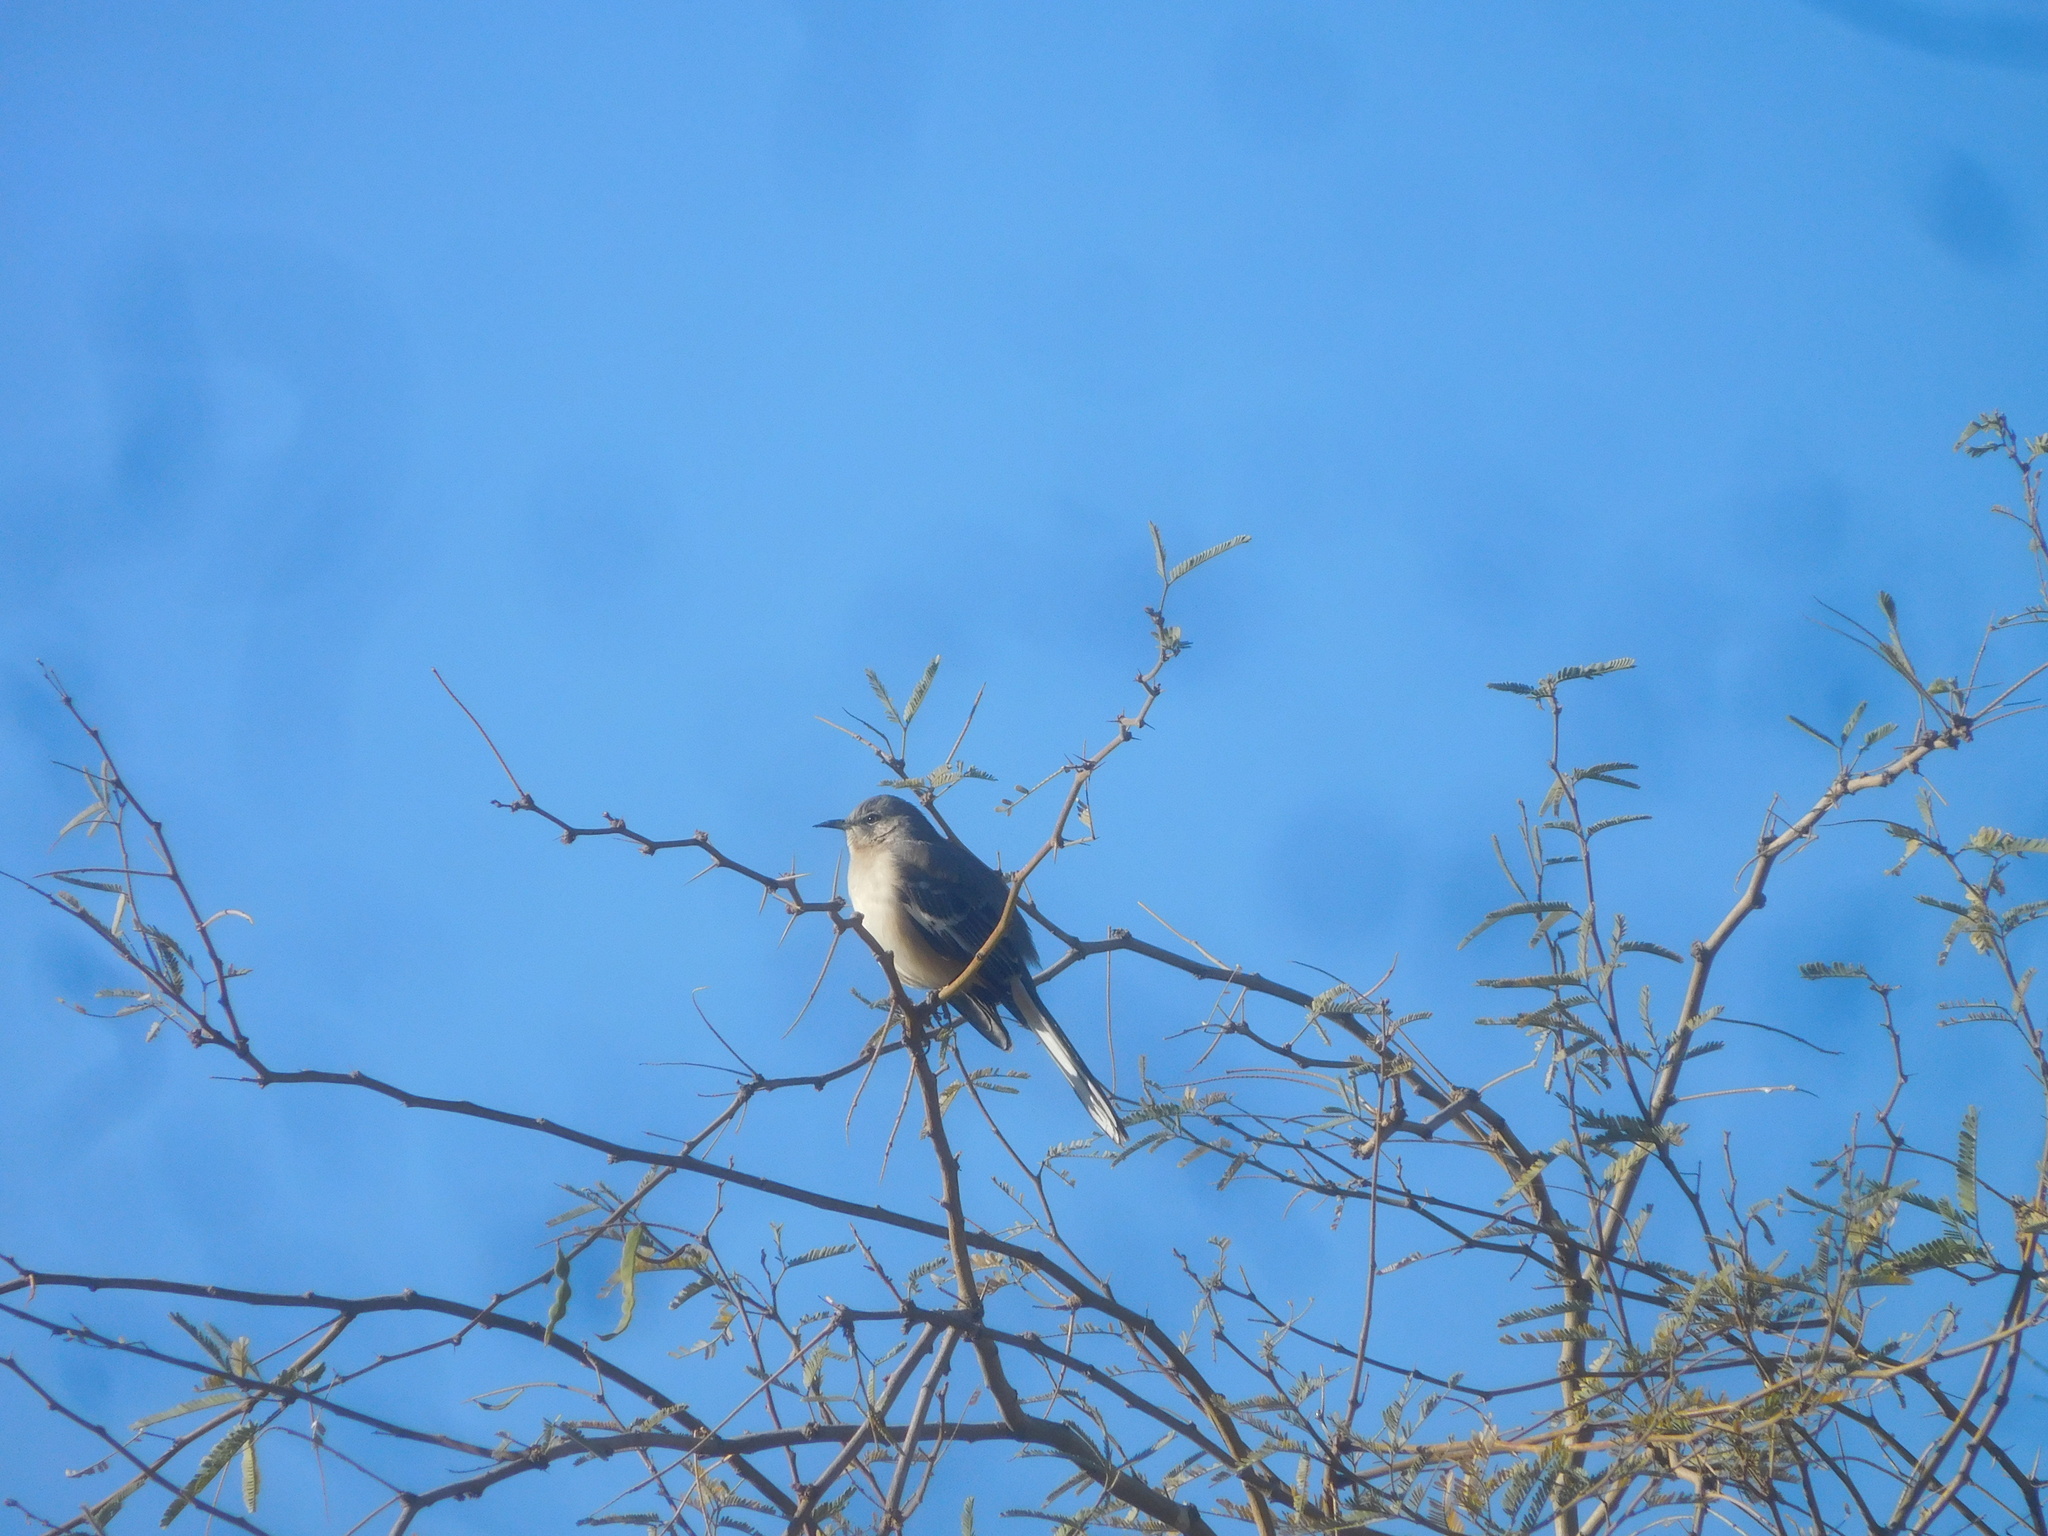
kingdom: Animalia
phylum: Chordata
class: Aves
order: Passeriformes
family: Mimidae
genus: Mimus
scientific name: Mimus polyglottos
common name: Northern mockingbird
